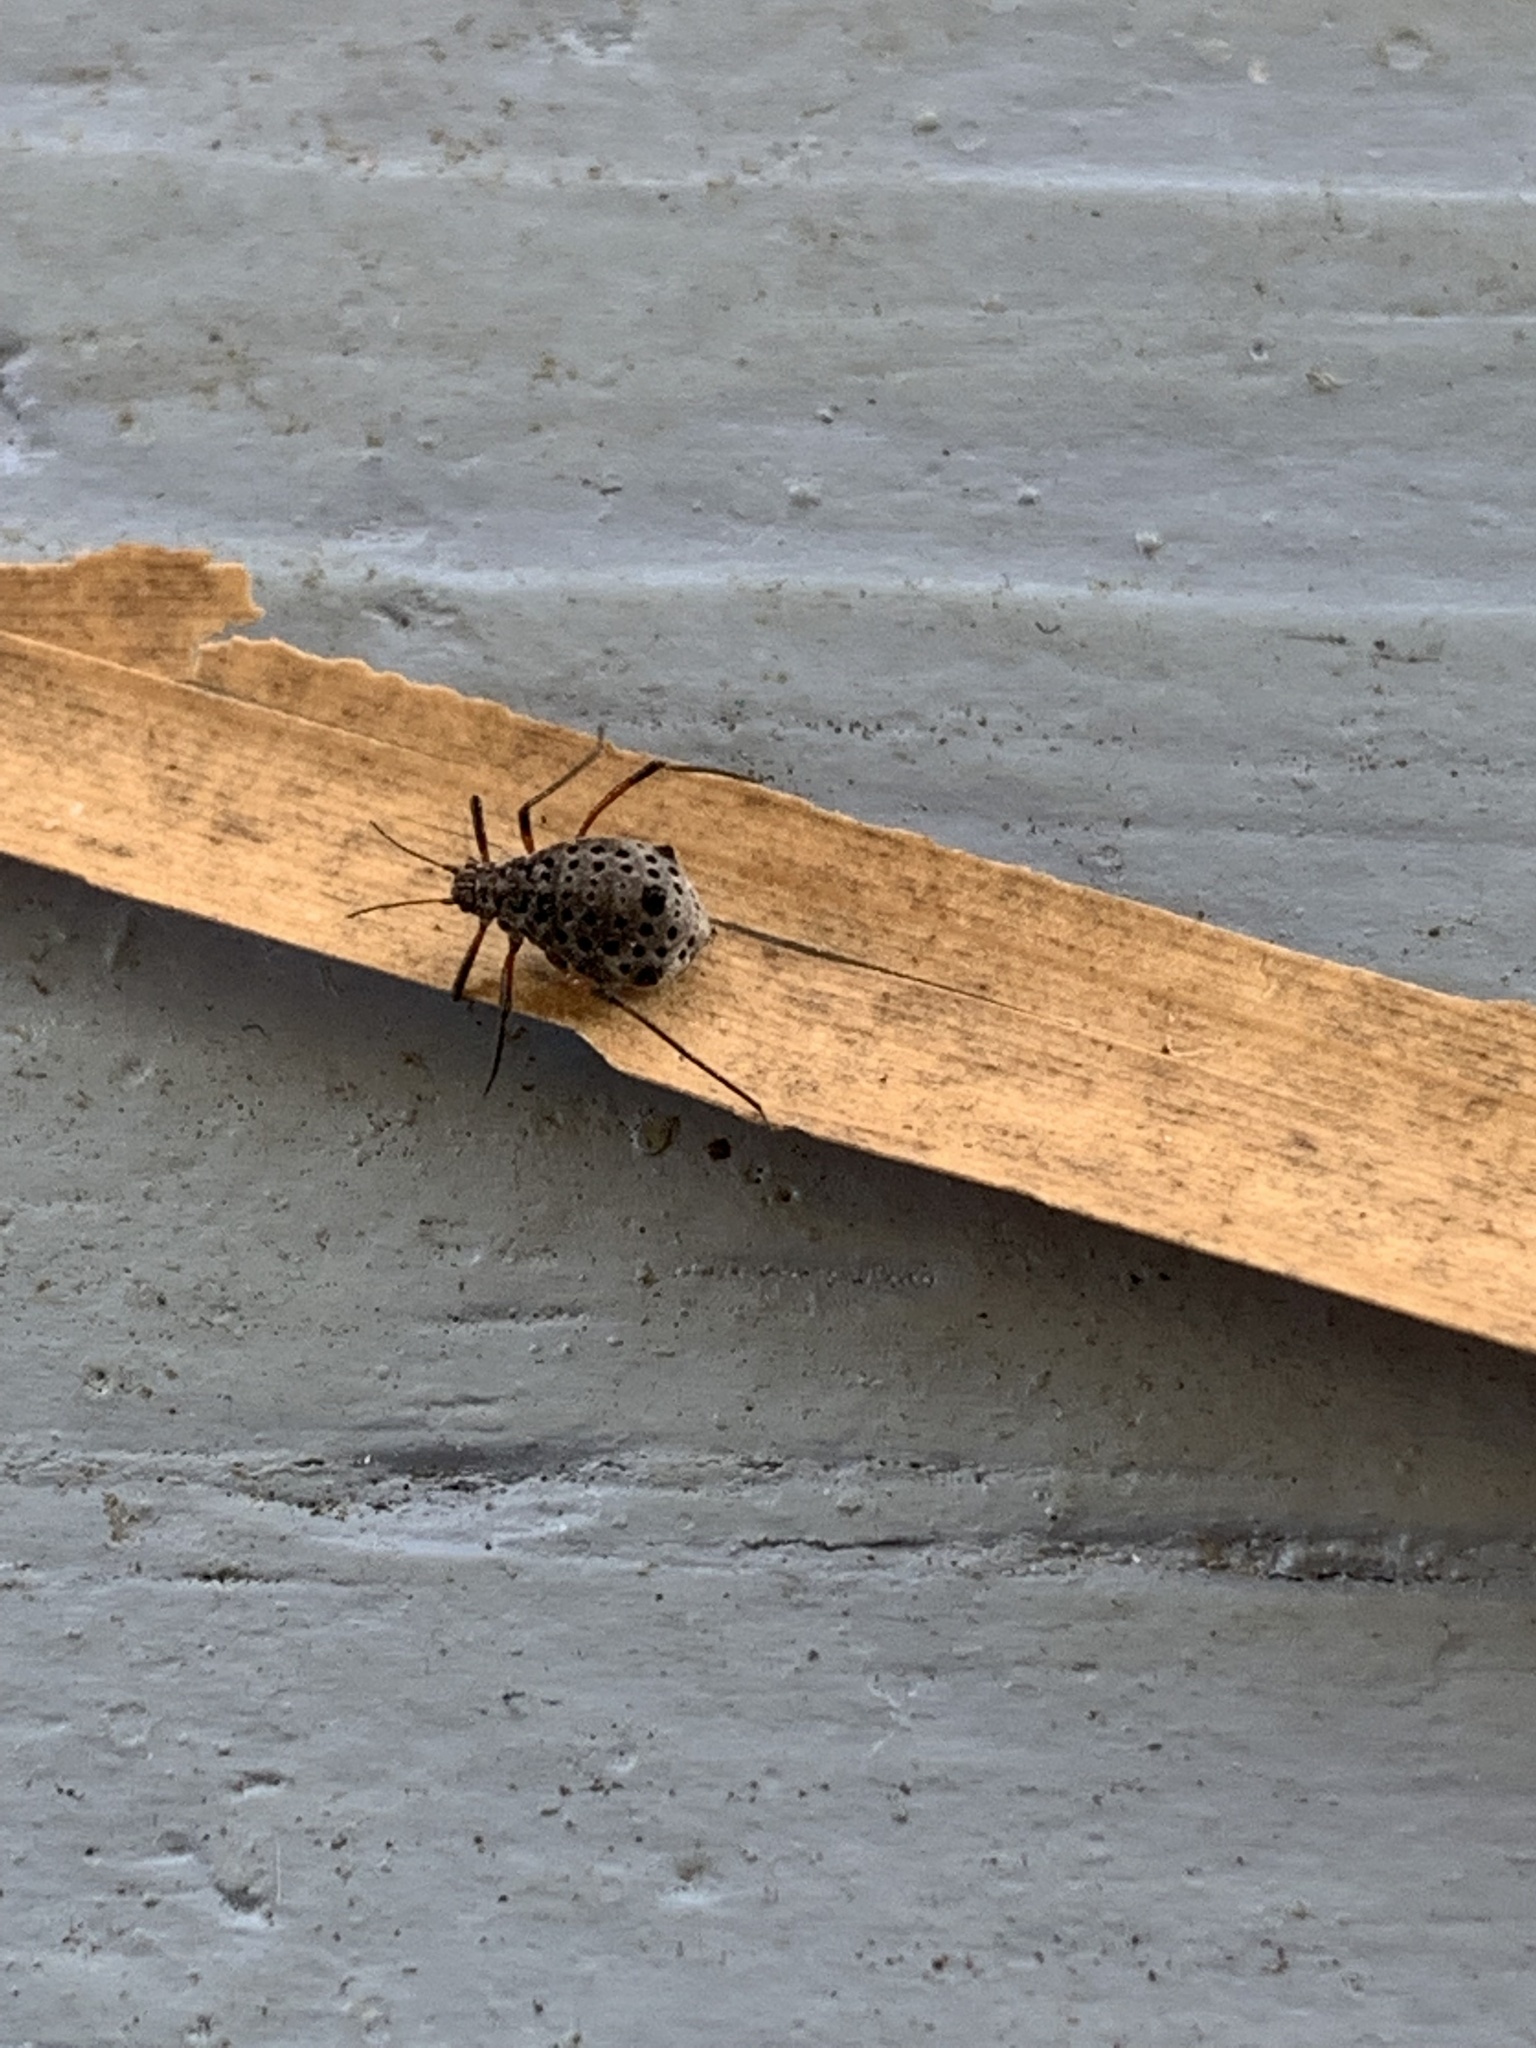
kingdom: Animalia
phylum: Arthropoda
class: Insecta
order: Hemiptera
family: Aphididae
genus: Tuberolachnus
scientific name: Tuberolachnus salignus
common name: Giant willow aphid
